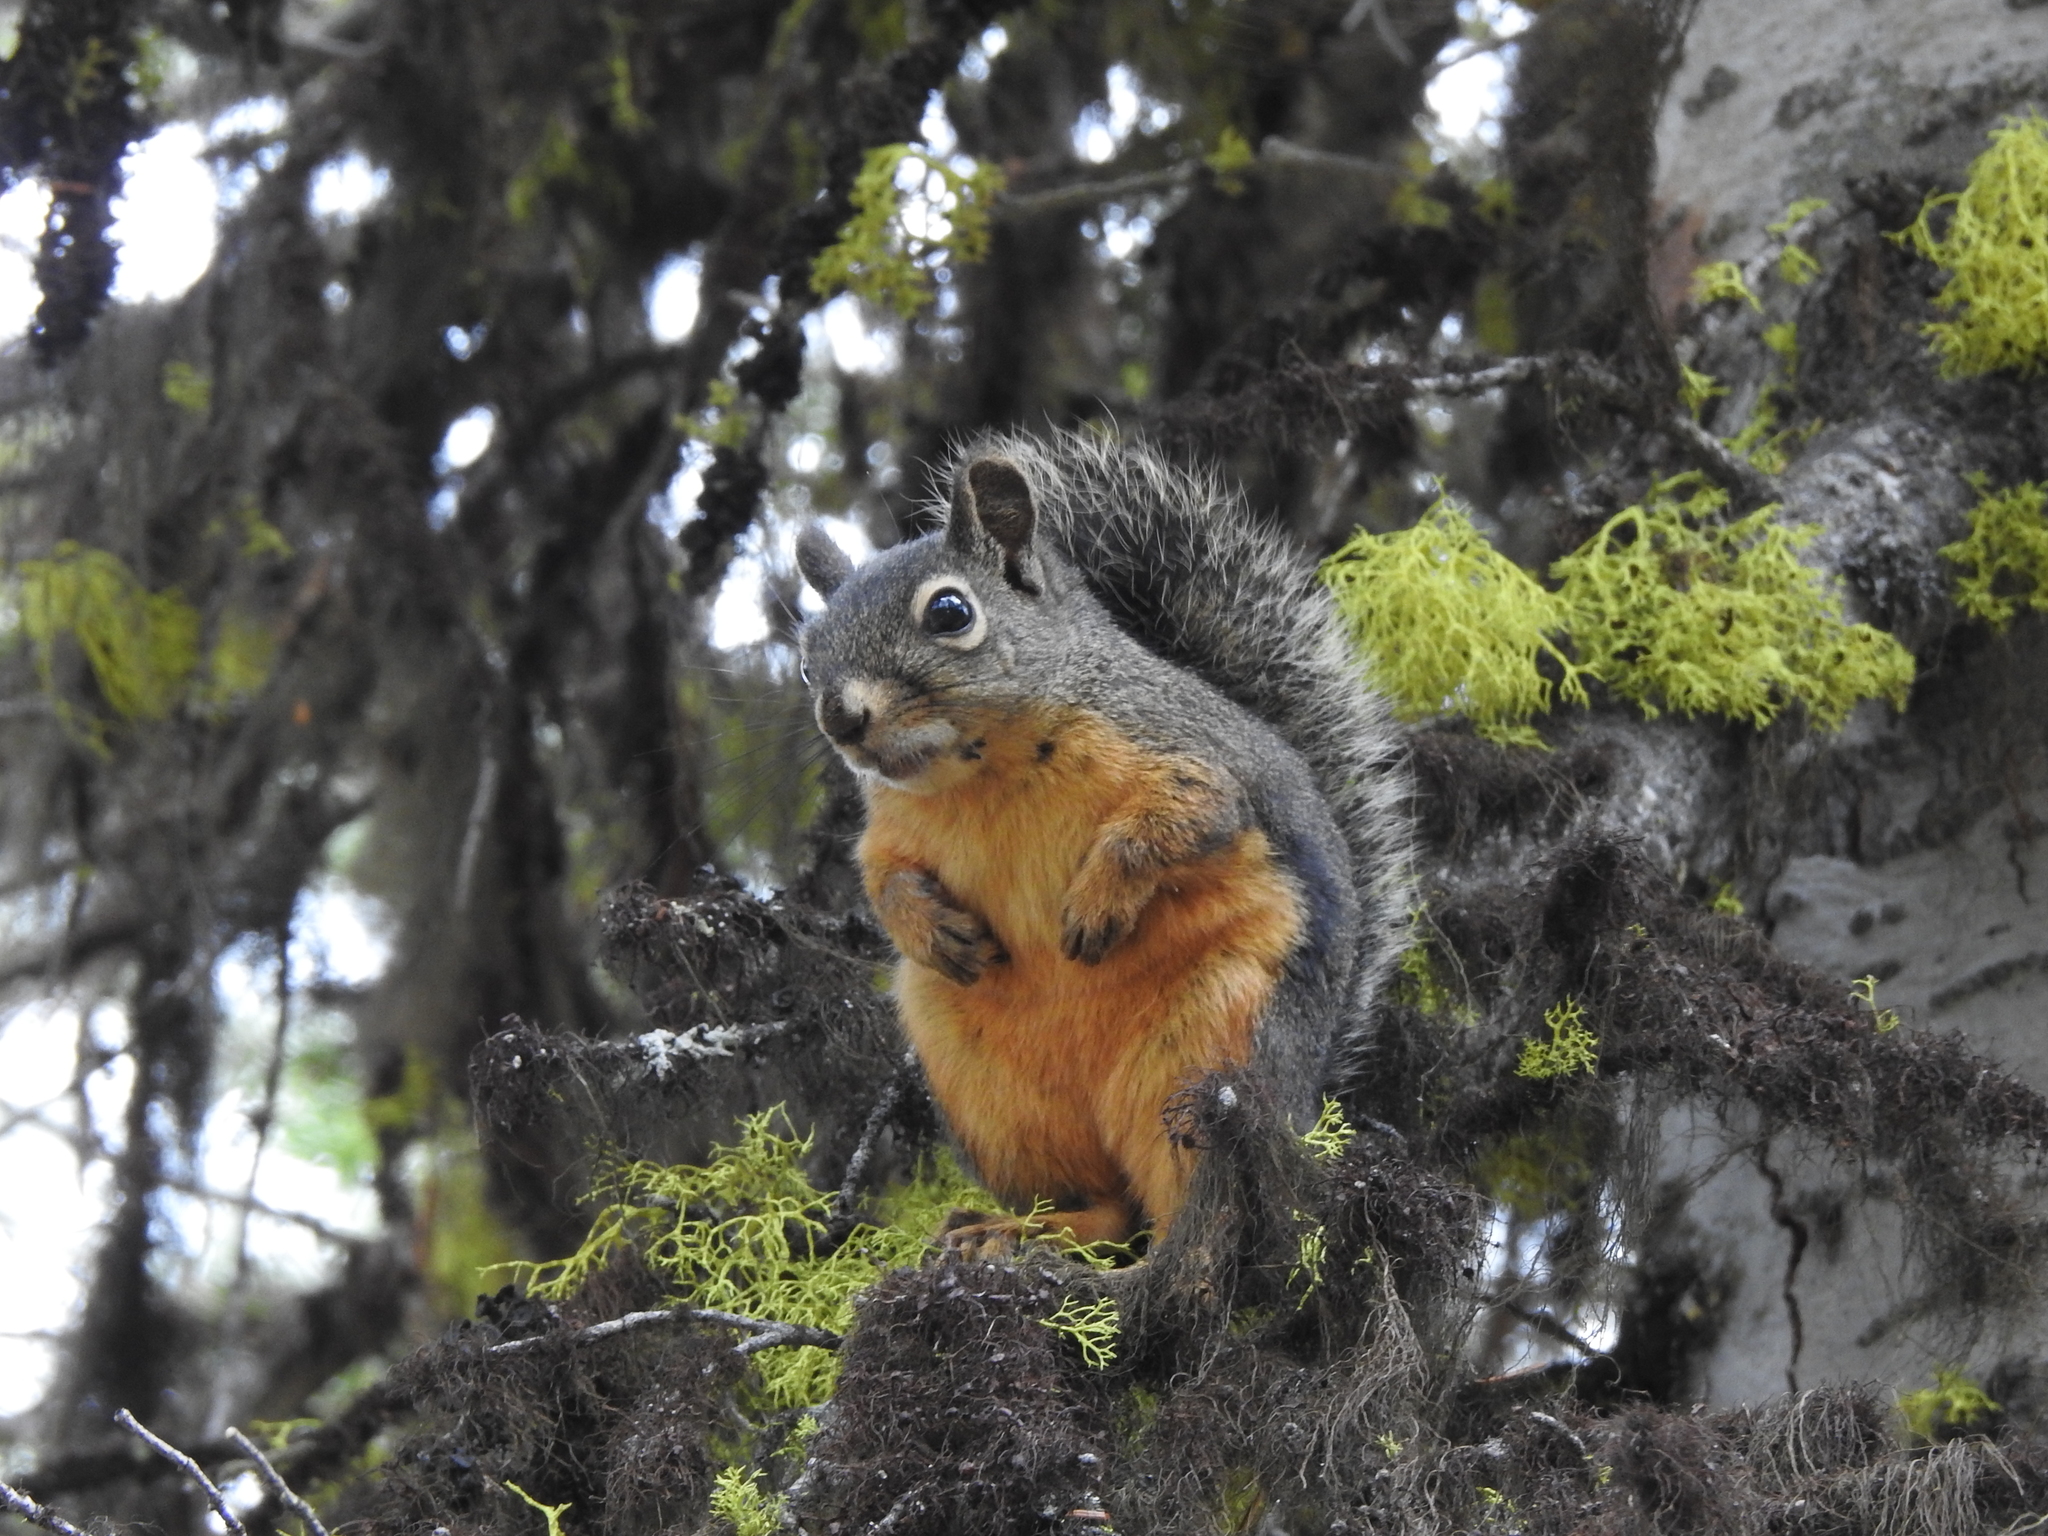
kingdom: Animalia
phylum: Chordata
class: Mammalia
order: Rodentia
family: Sciuridae
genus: Tamiasciurus
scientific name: Tamiasciurus douglasii
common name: Douglas's squirrel
